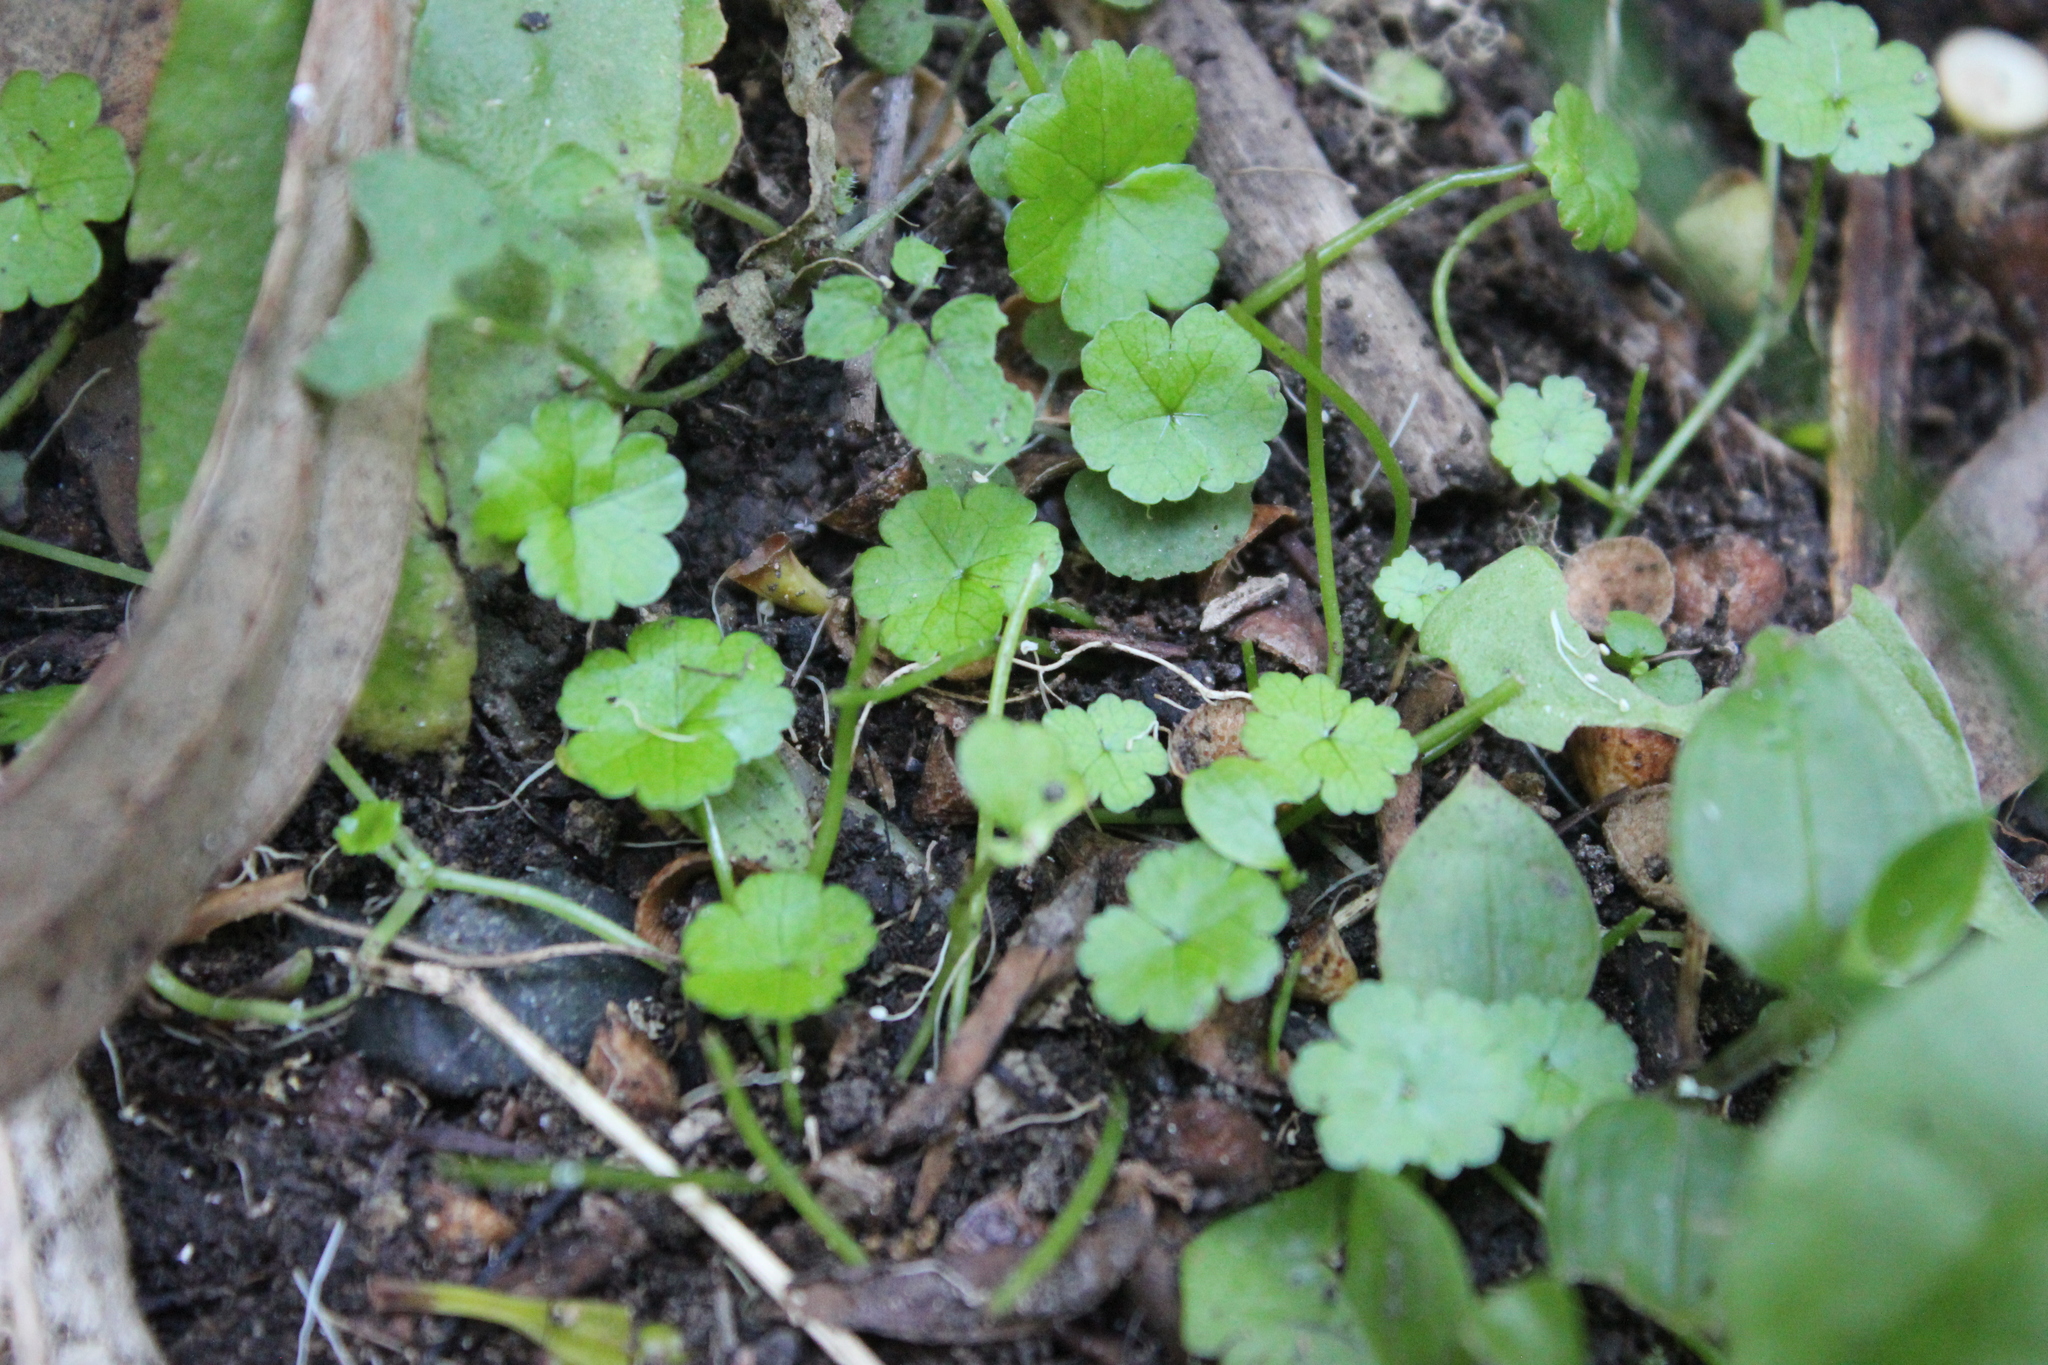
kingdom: Plantae
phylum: Tracheophyta
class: Magnoliopsida
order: Apiales
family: Araliaceae
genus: Hydrocotyle
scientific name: Hydrocotyle heteromeria
